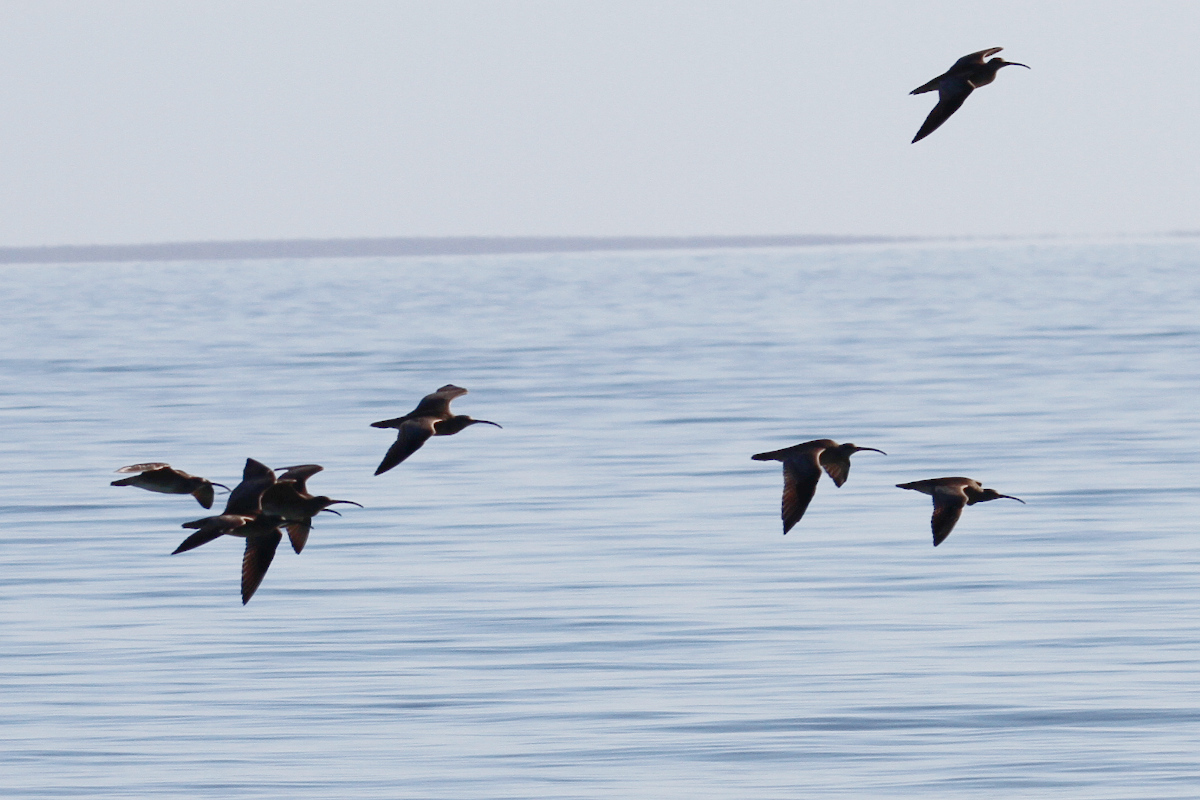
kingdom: Animalia
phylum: Chordata
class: Aves
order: Charadriiformes
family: Scolopacidae
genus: Numenius
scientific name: Numenius phaeopus
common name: Whimbrel
